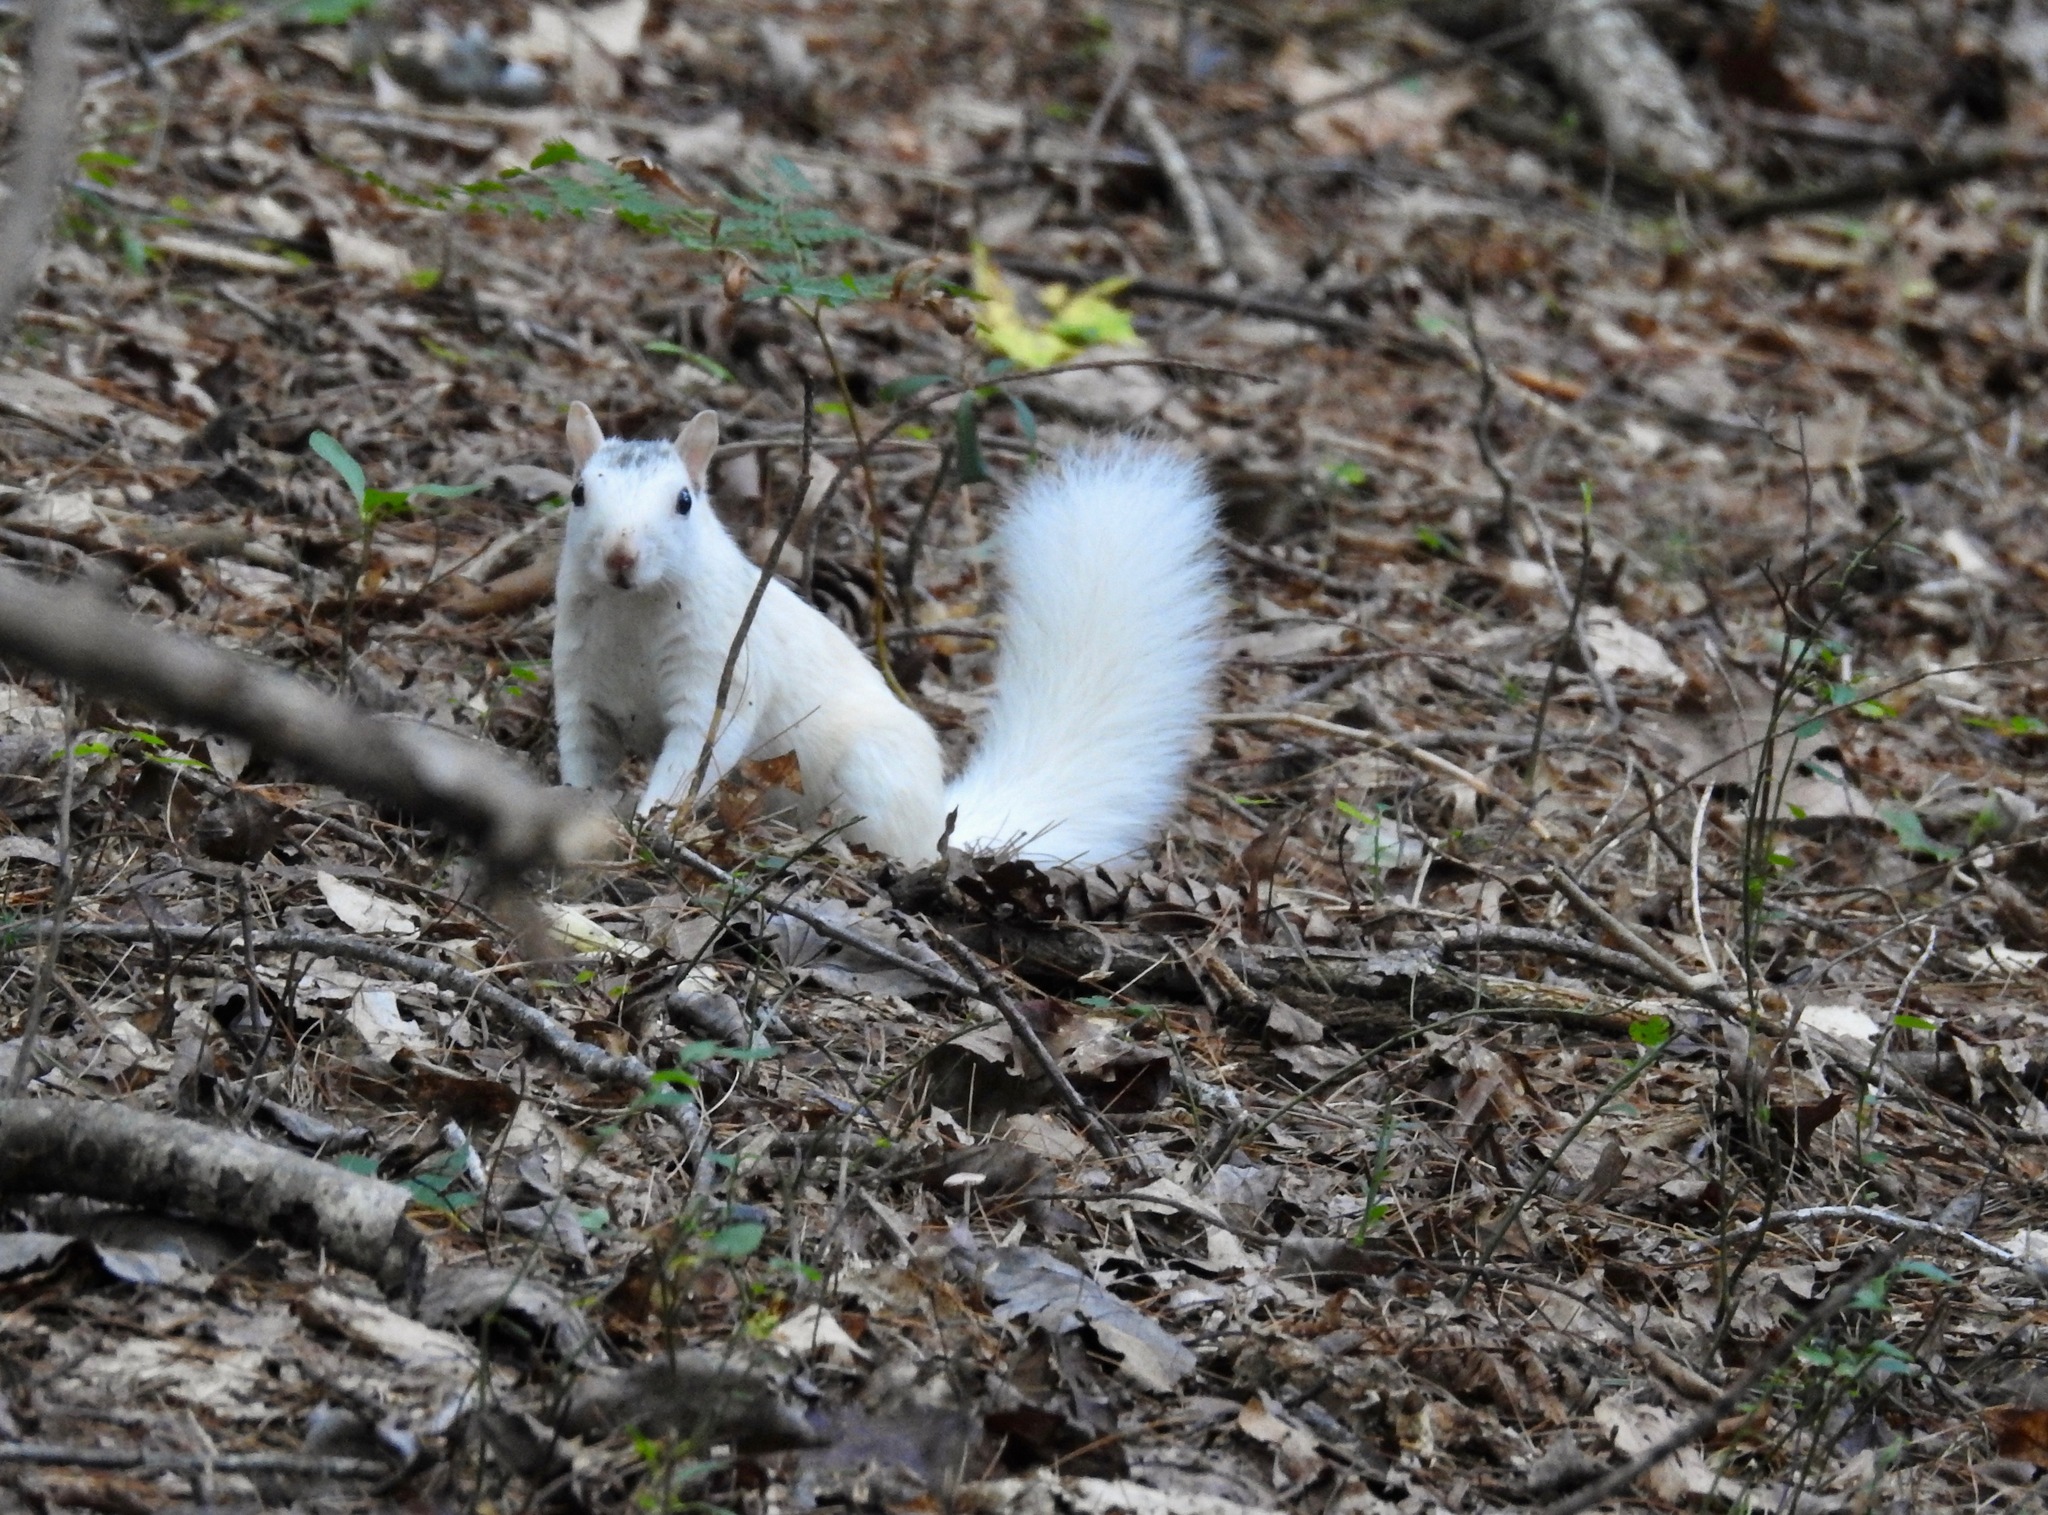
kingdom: Animalia
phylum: Chordata
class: Mammalia
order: Rodentia
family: Sciuridae
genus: Sciurus
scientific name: Sciurus carolinensis
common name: Eastern gray squirrel
